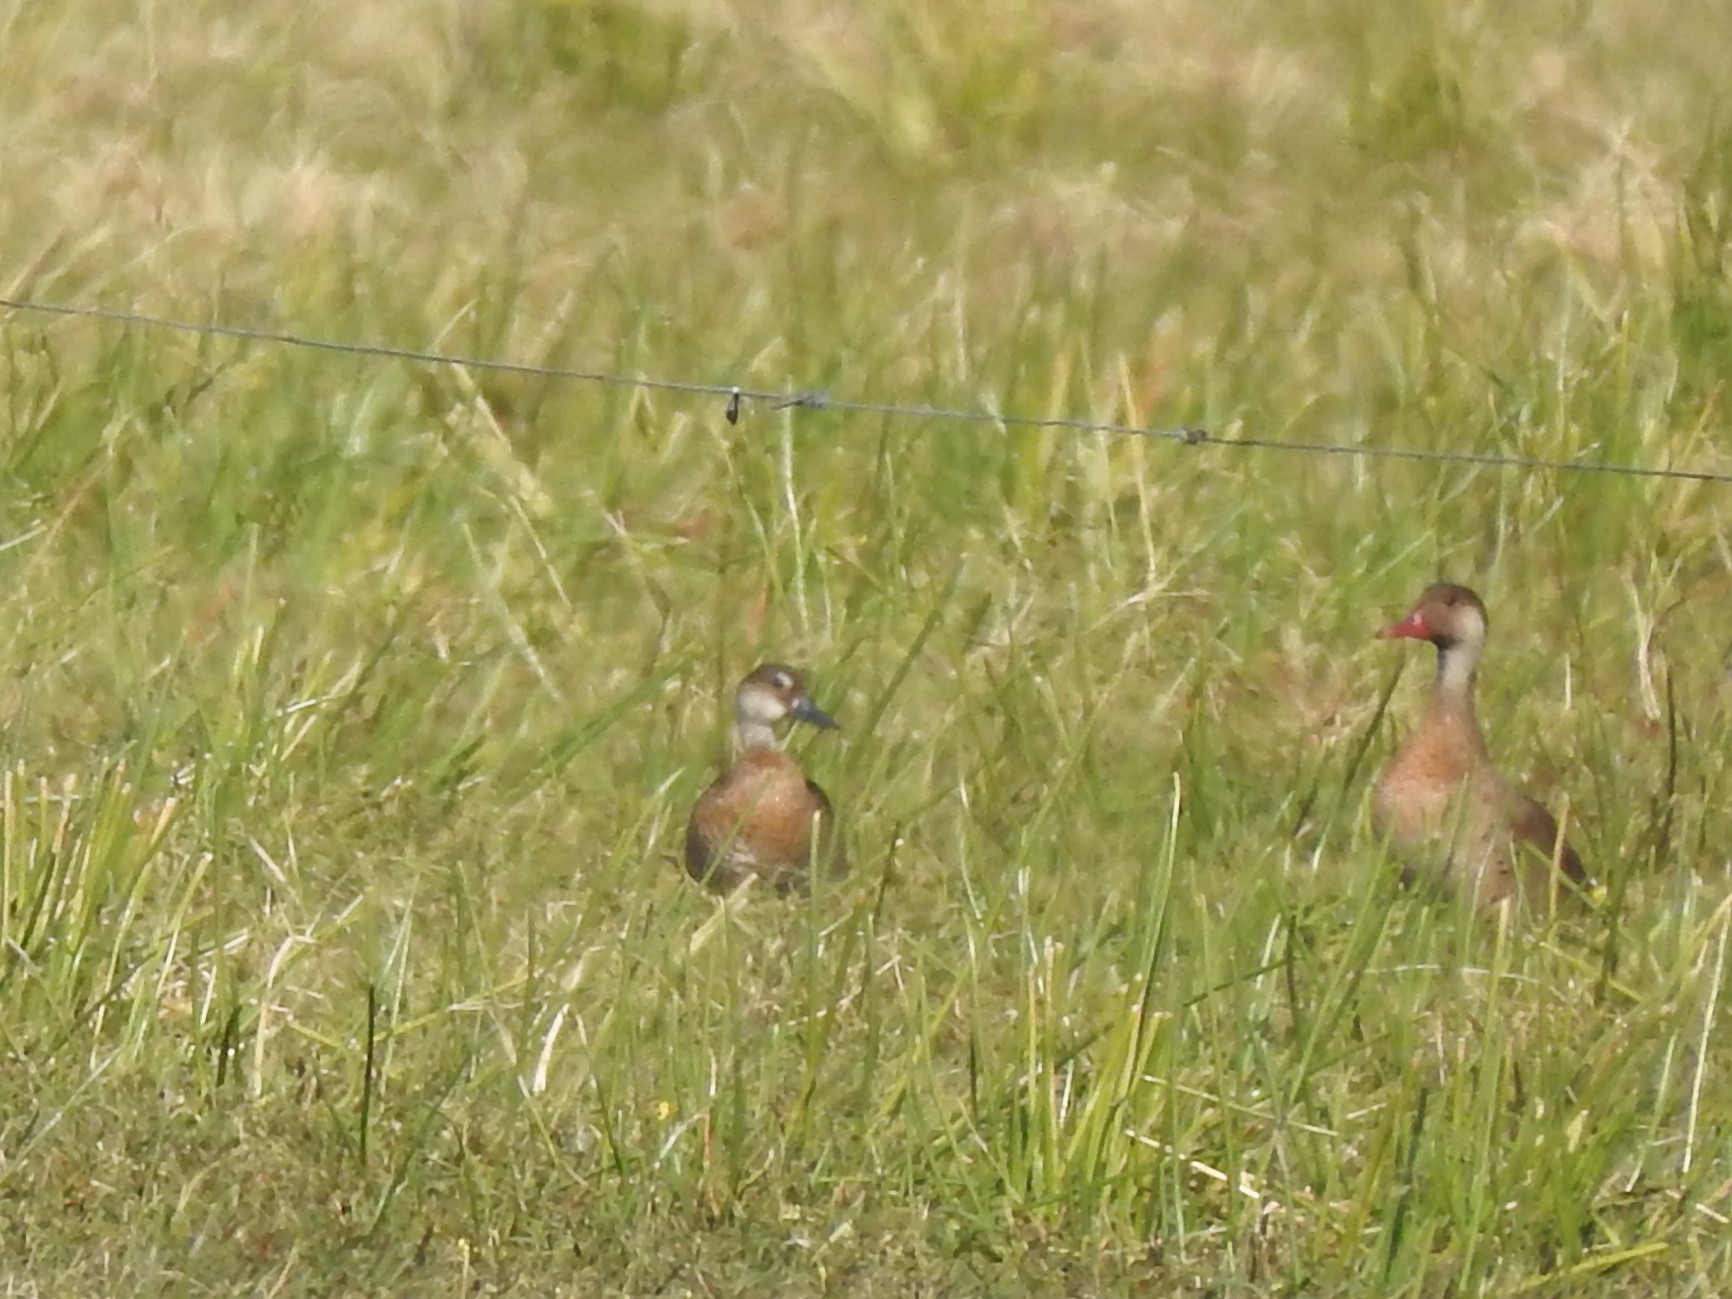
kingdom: Animalia
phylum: Chordata
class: Aves
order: Anseriformes
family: Anatidae
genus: Amazonetta
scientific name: Amazonetta brasiliensis
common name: Brazilian teal
